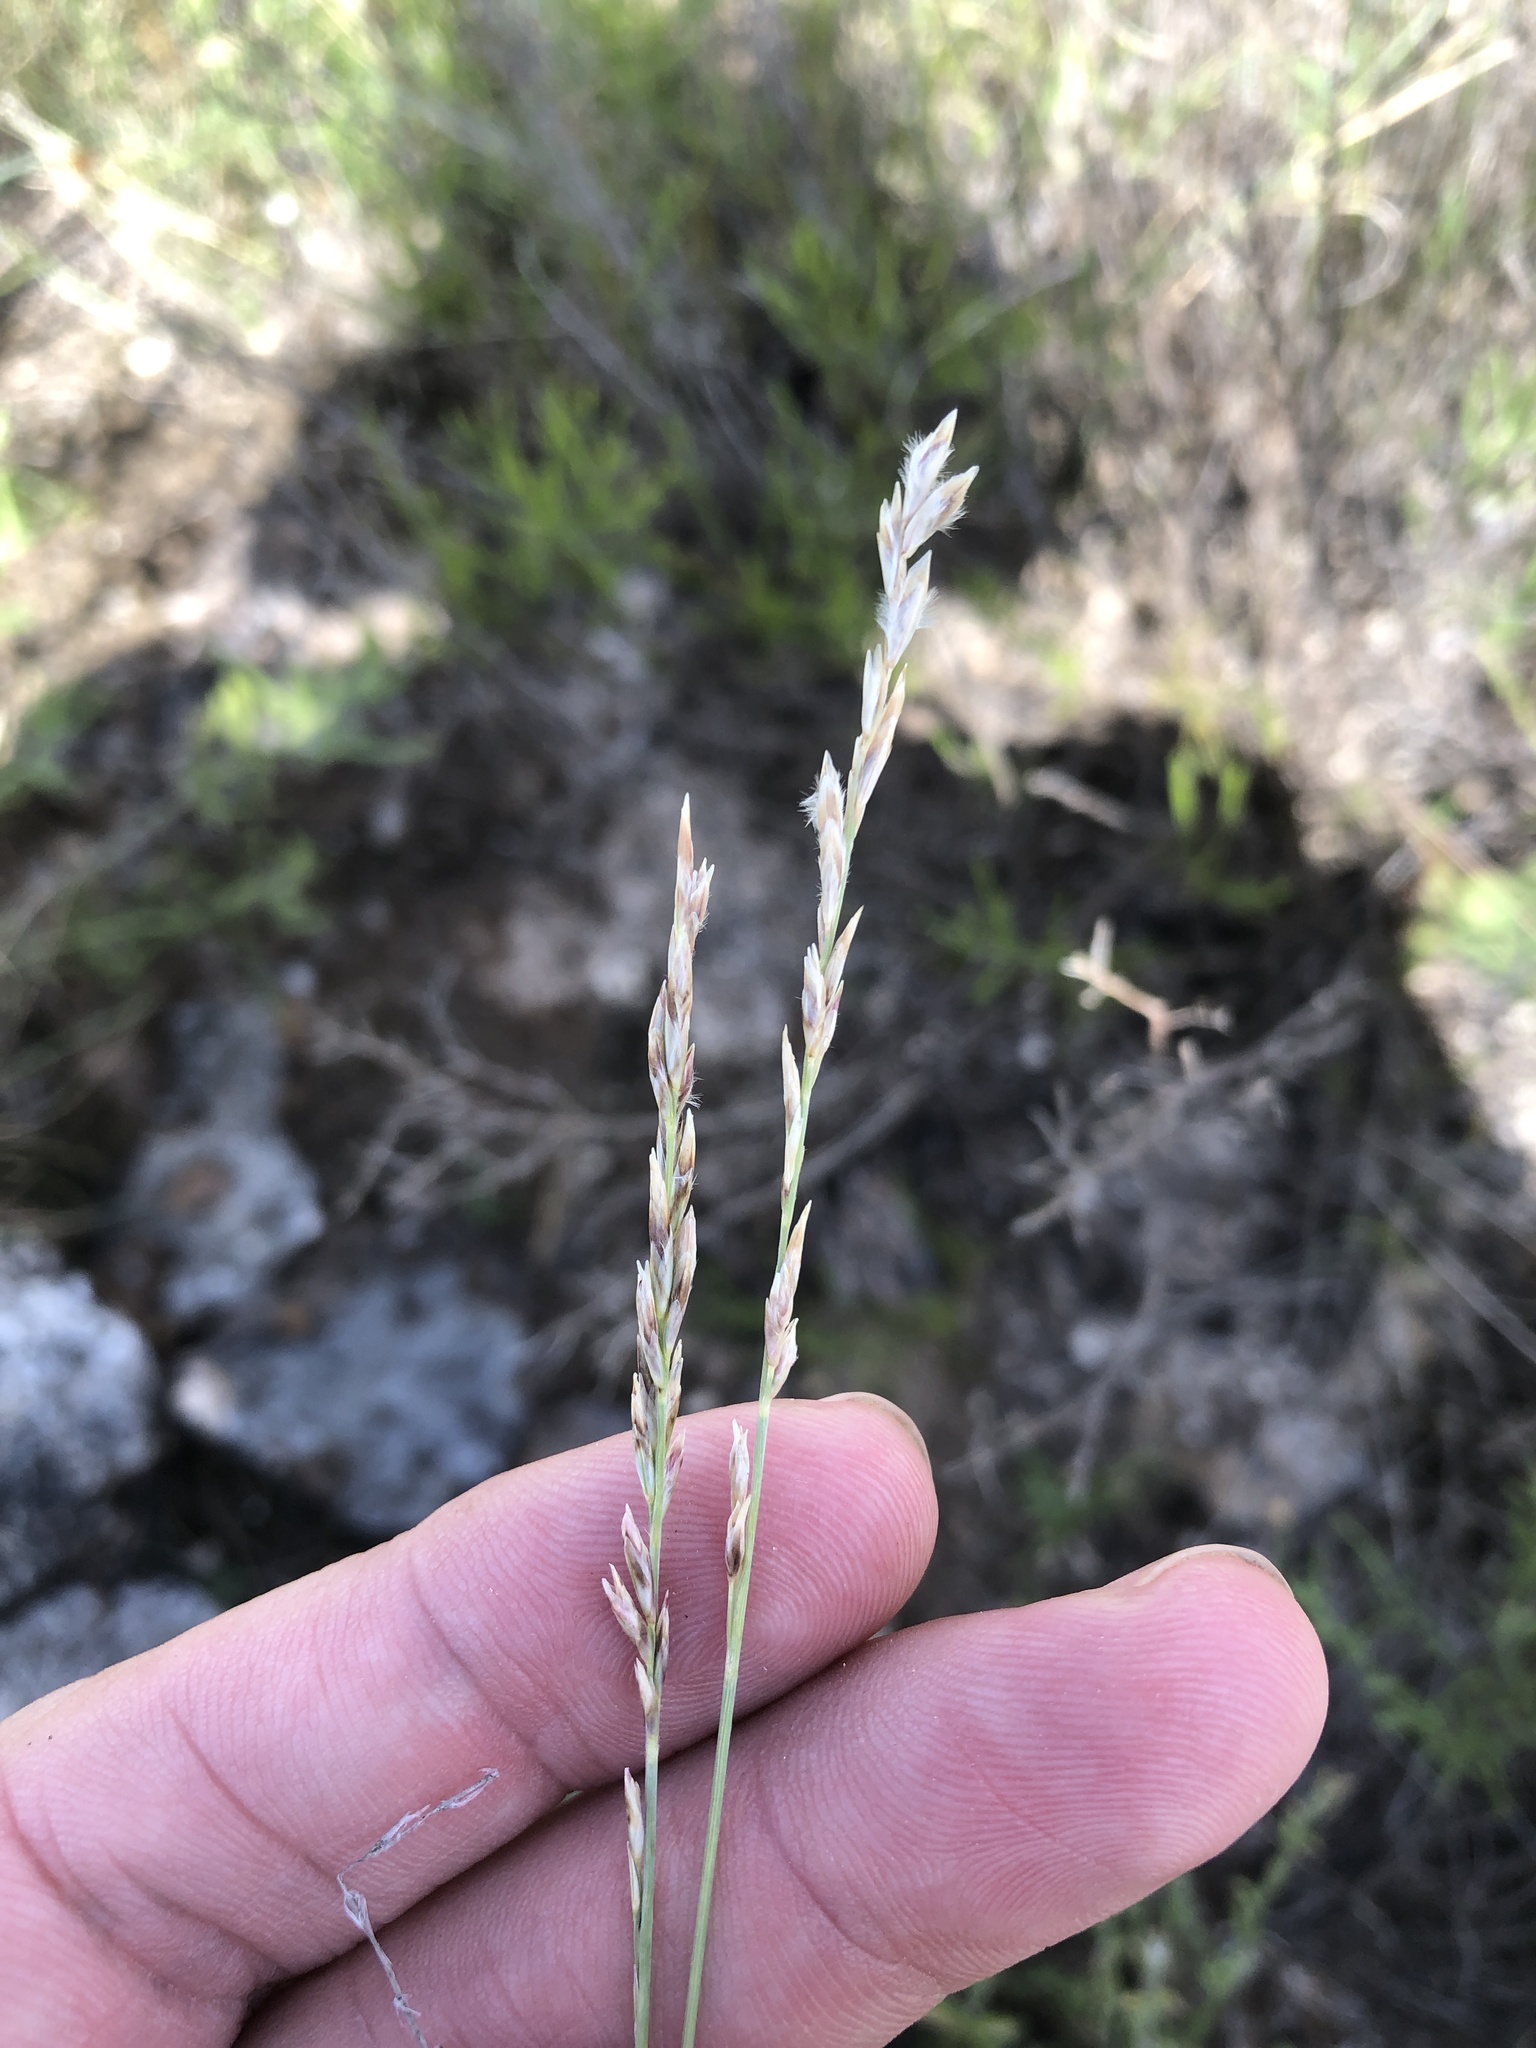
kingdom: Plantae
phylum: Tracheophyta
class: Liliopsida
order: Poales
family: Poaceae
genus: Tridentopsis
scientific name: Tridentopsis mutica
